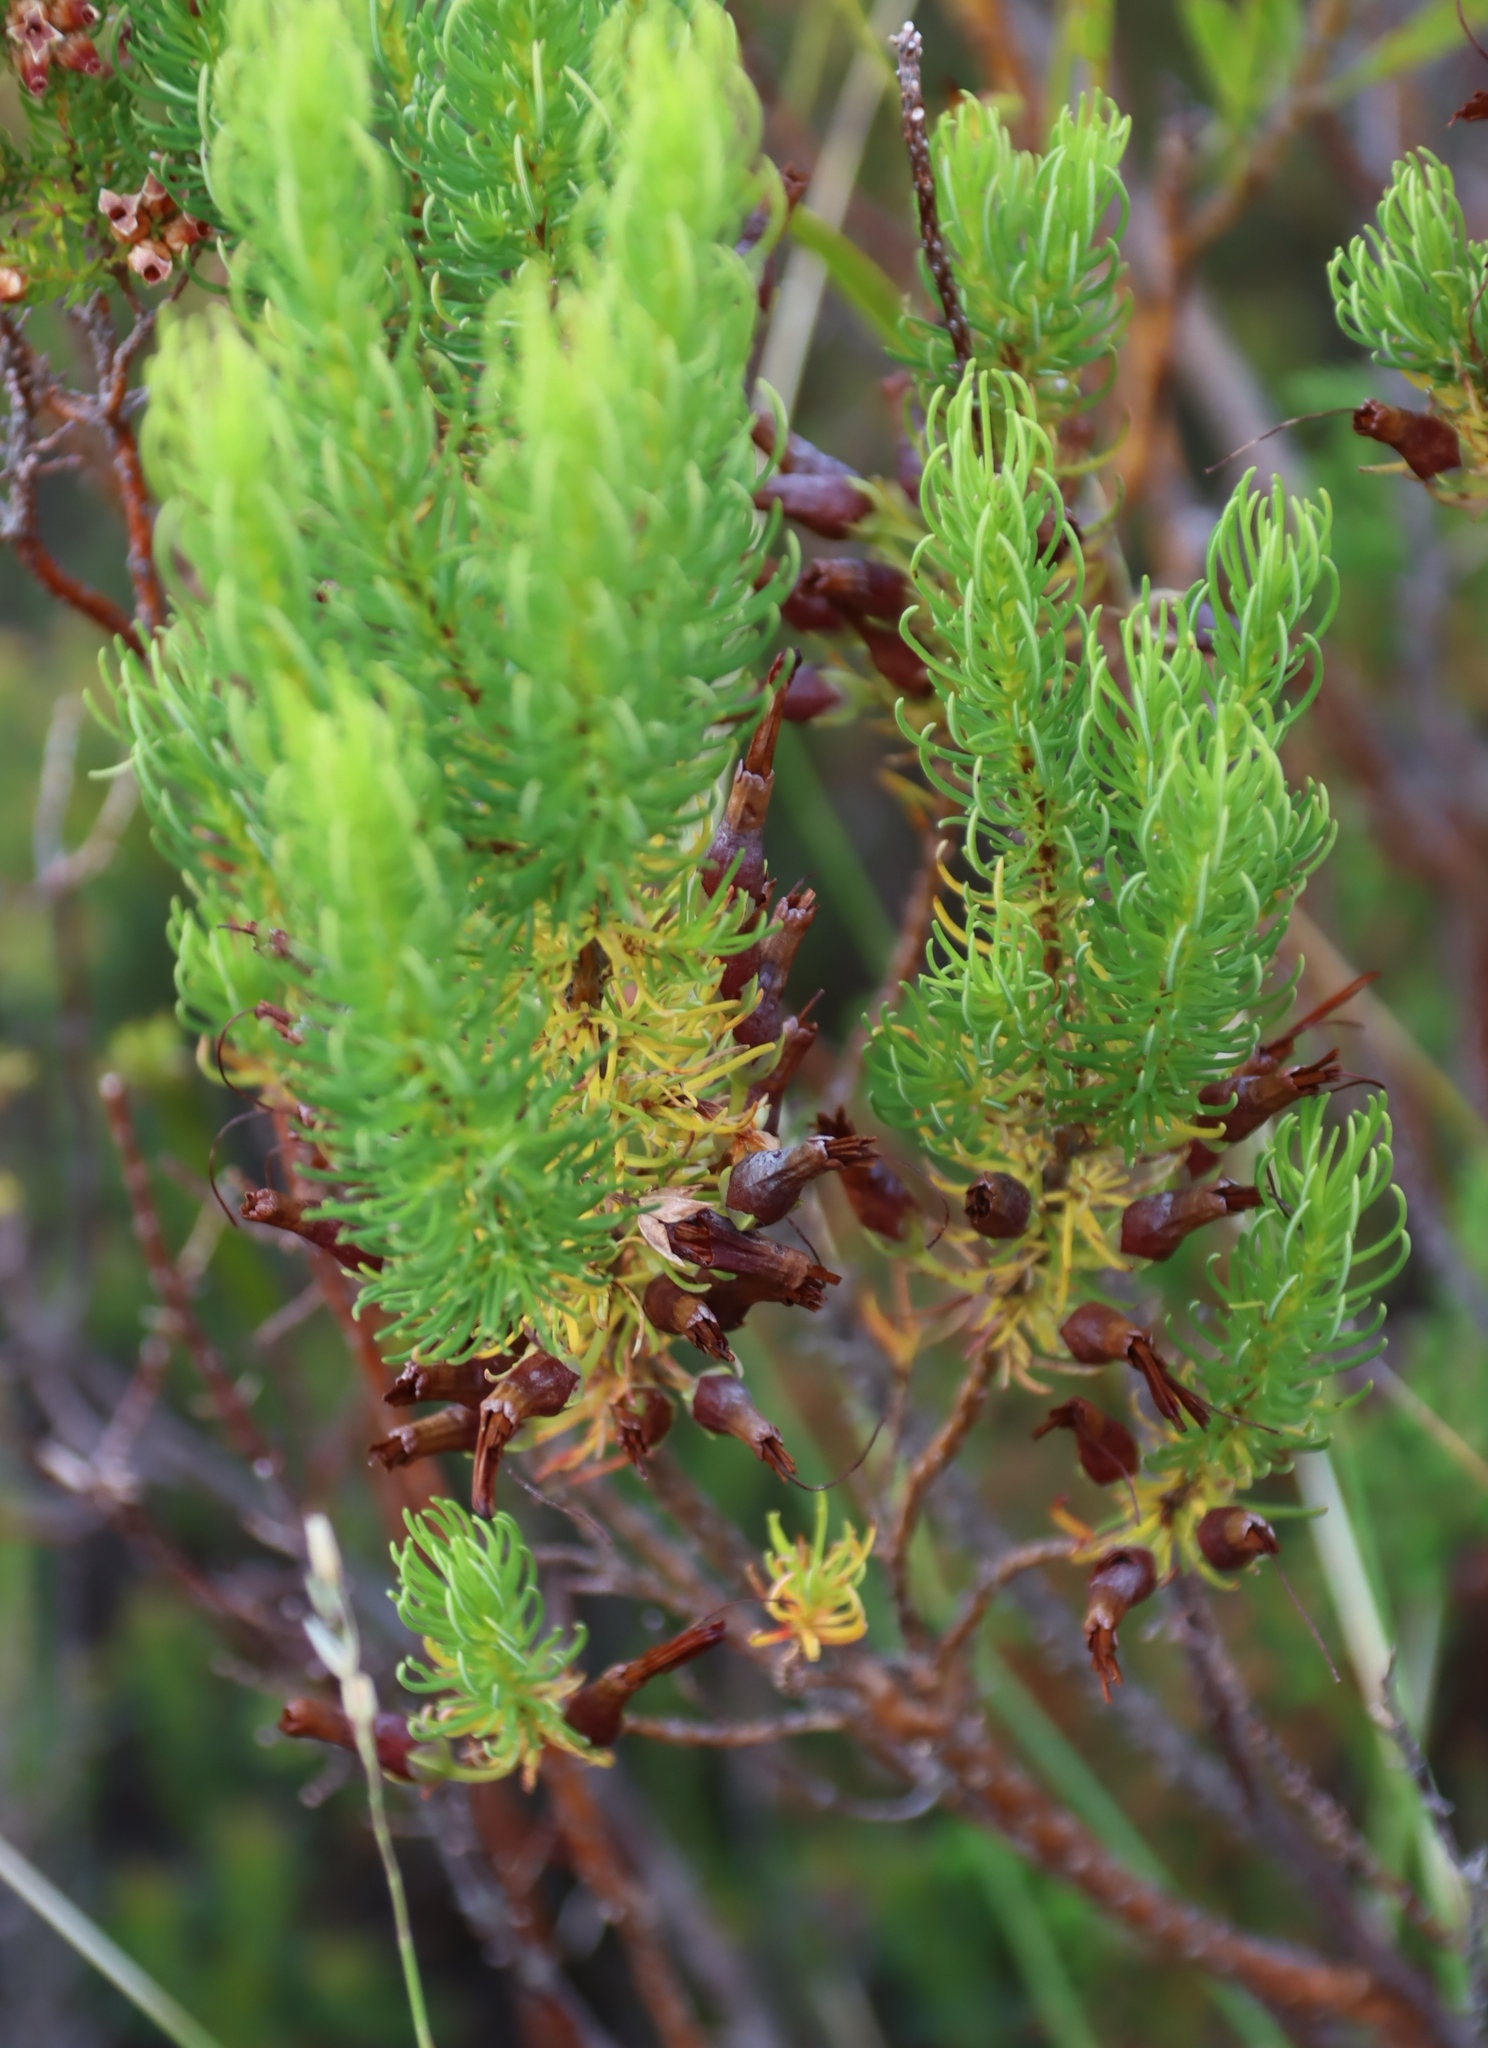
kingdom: Plantae
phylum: Tracheophyta
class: Magnoliopsida
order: Ericales
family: Ericaceae
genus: Erica
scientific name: Erica plukenetii
